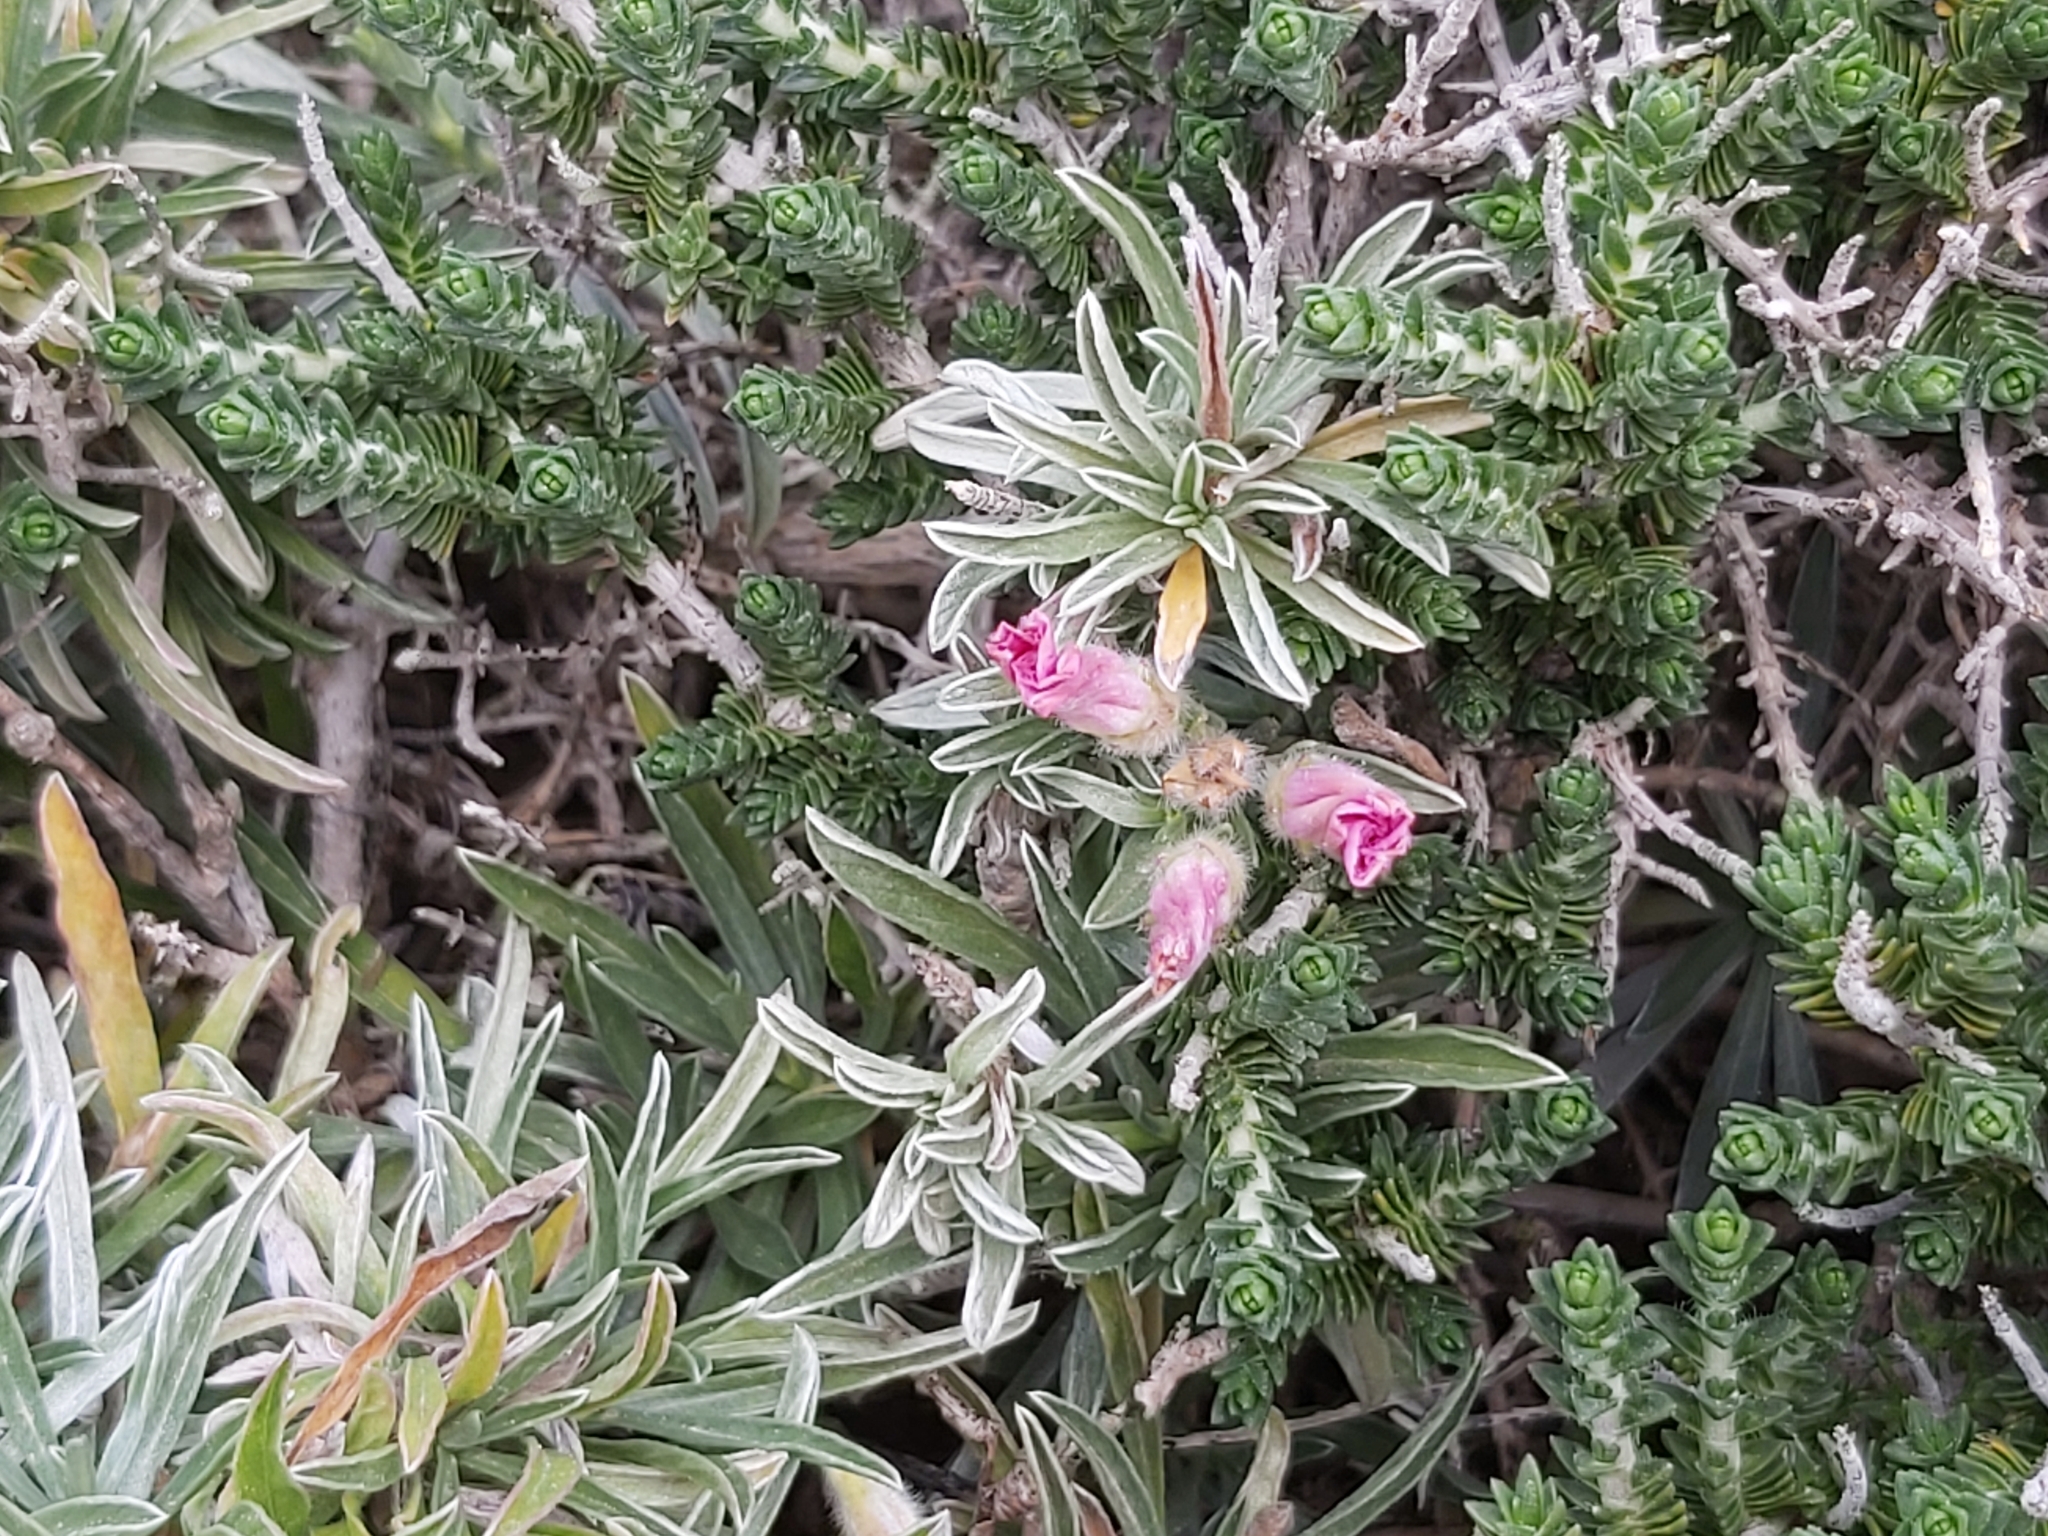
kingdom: Plantae
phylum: Tracheophyta
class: Magnoliopsida
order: Solanales
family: Convolvulaceae
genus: Convolvulus
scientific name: Convolvulus oleifolius
